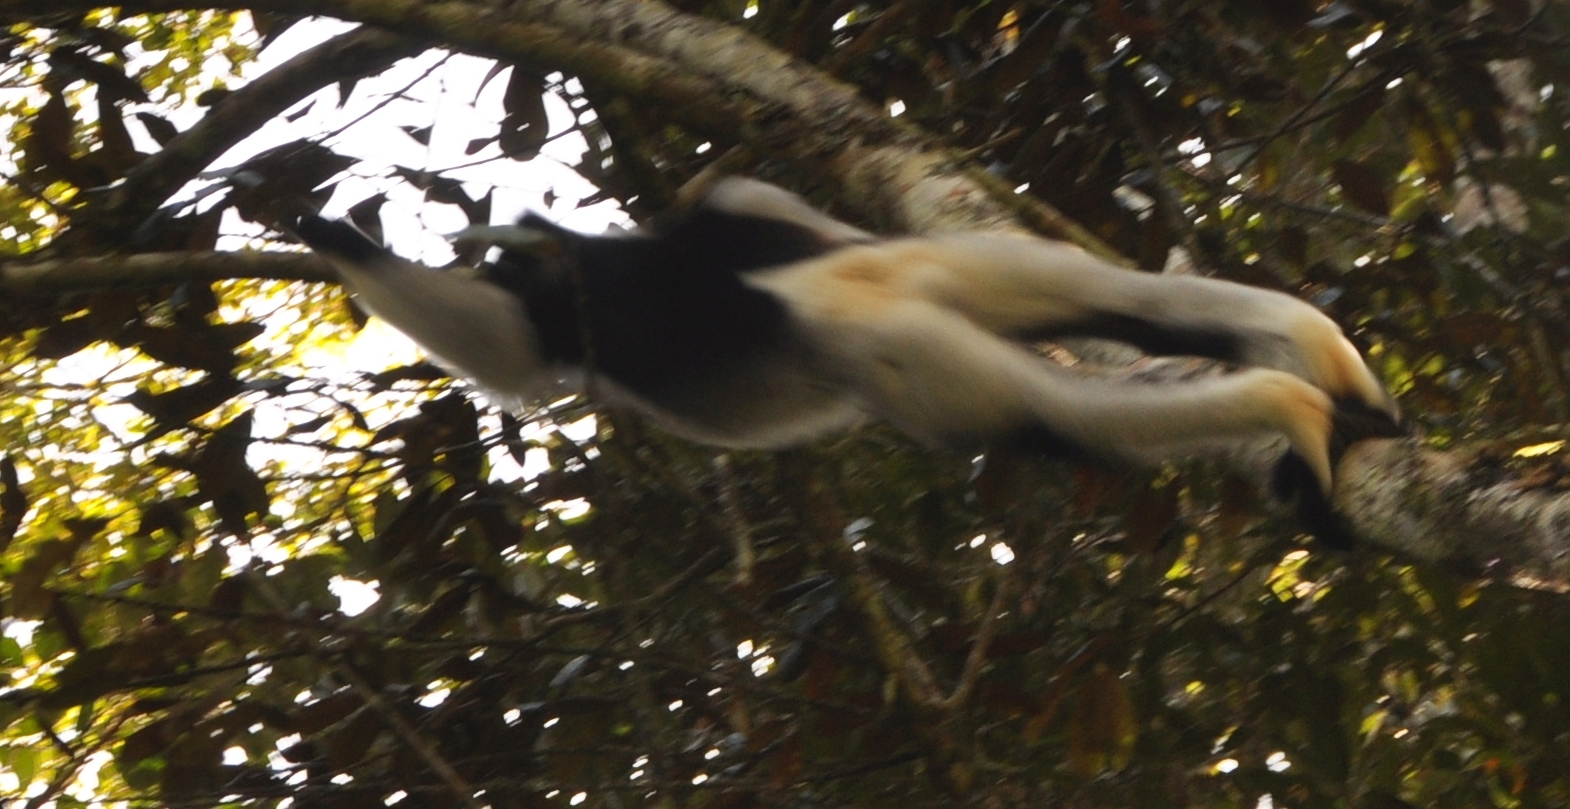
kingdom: Animalia
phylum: Chordata
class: Mammalia
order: Primates
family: Indriidae
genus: Indri
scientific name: Indri indri
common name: Indri
